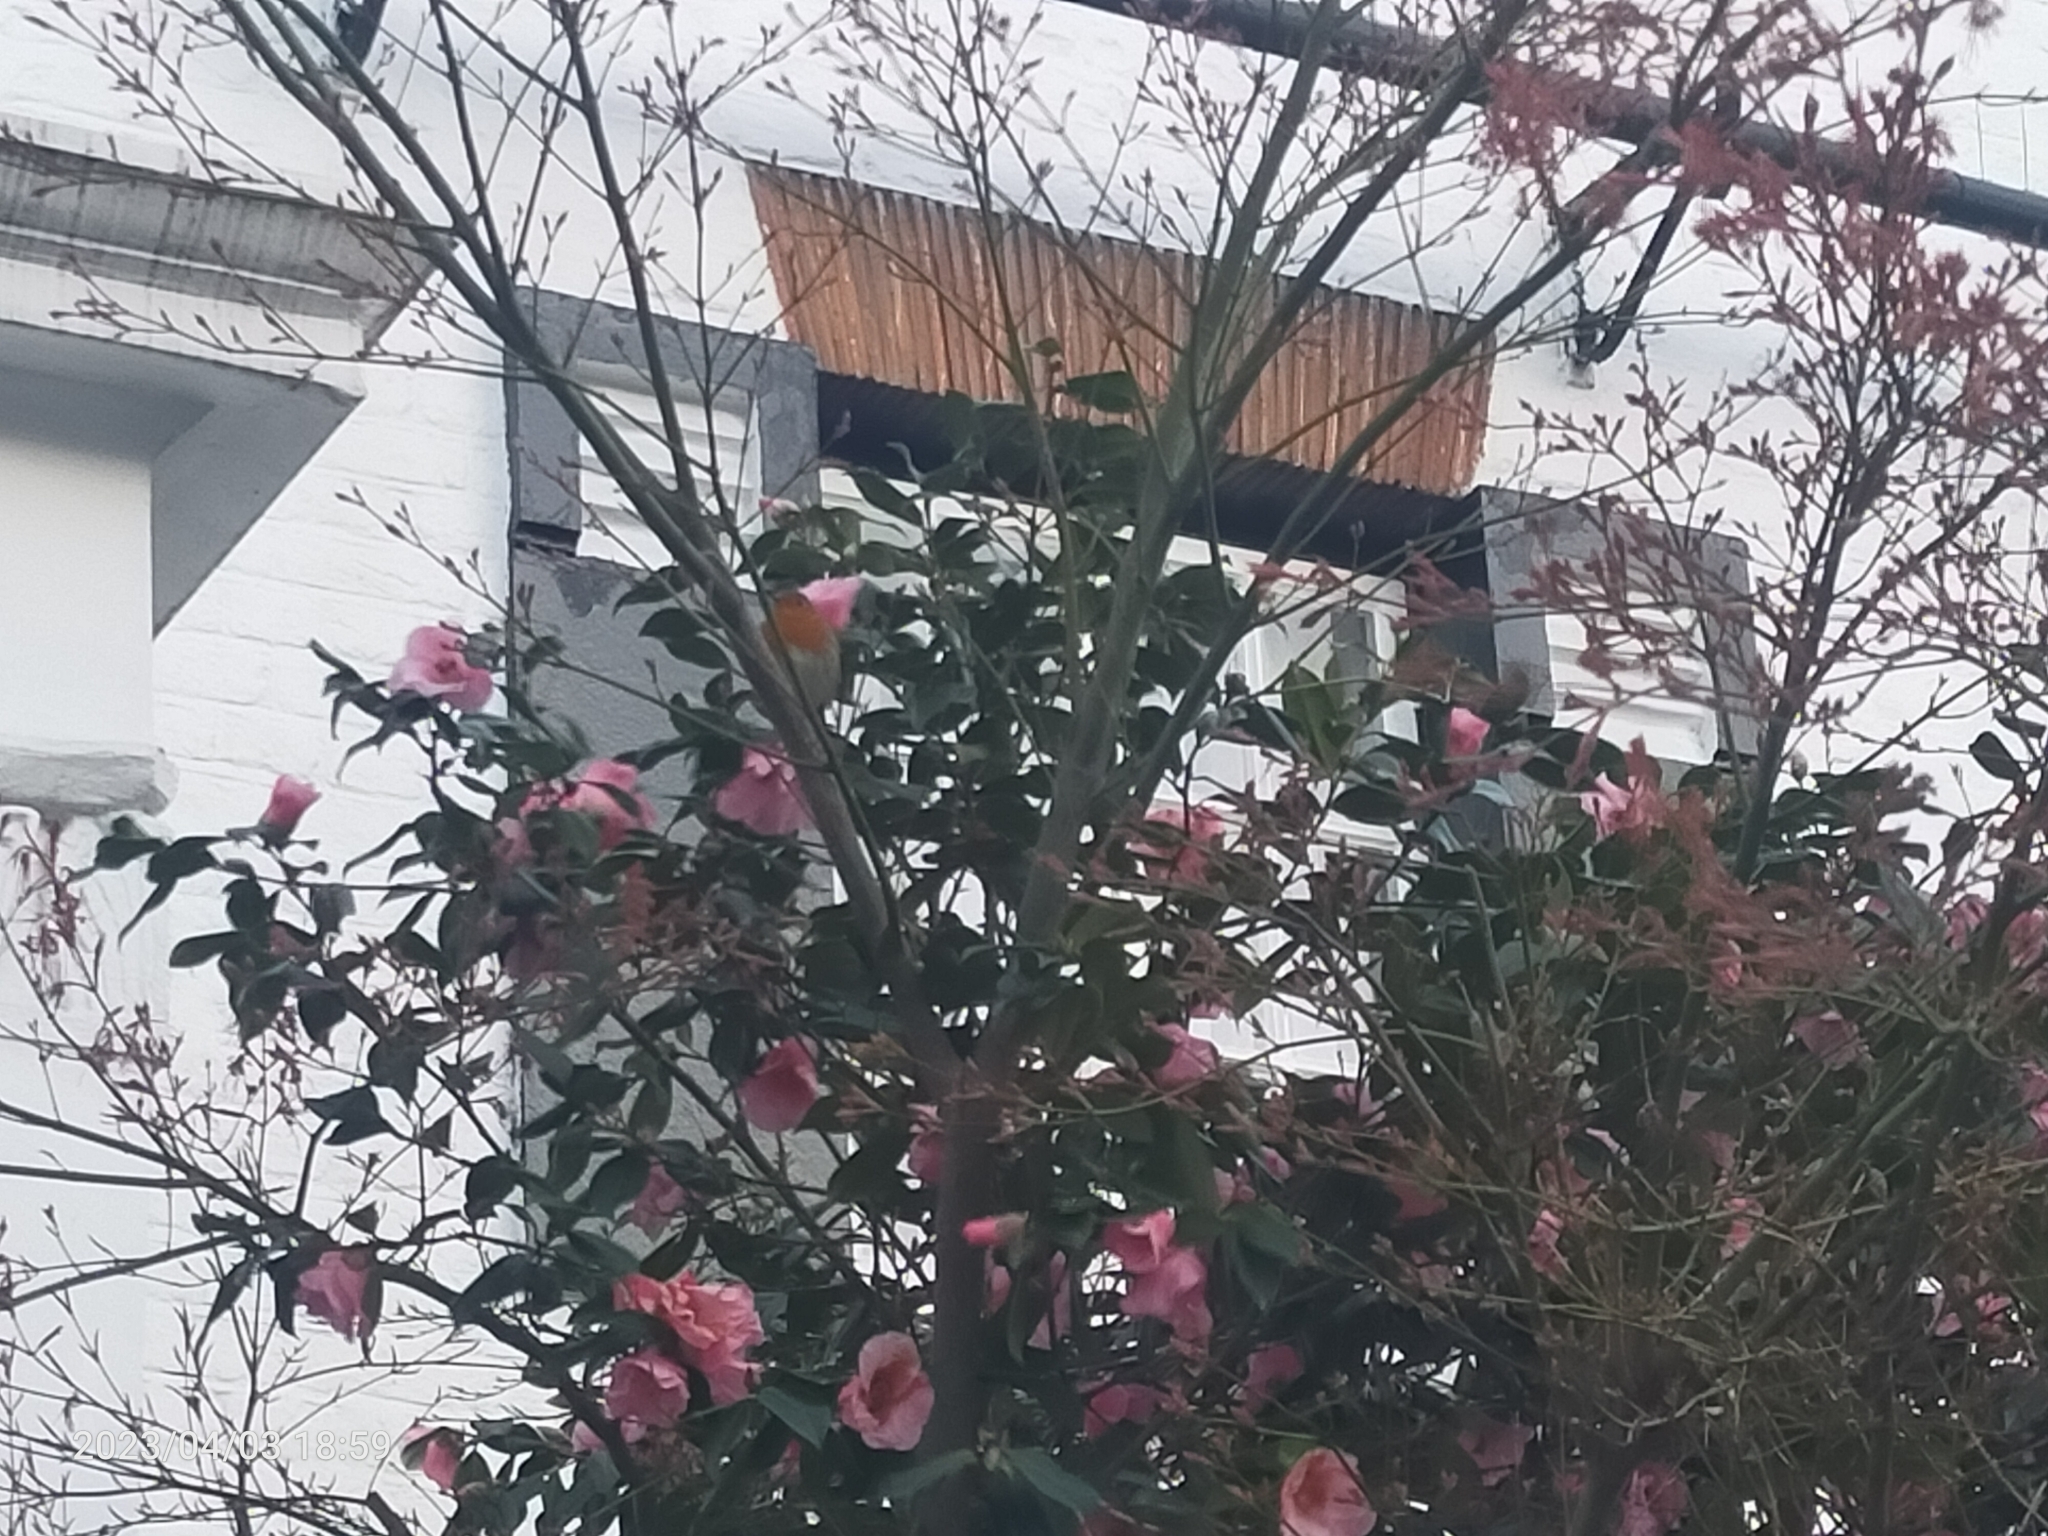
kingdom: Animalia
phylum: Chordata
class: Aves
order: Passeriformes
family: Muscicapidae
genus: Erithacus
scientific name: Erithacus rubecula
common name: European robin
